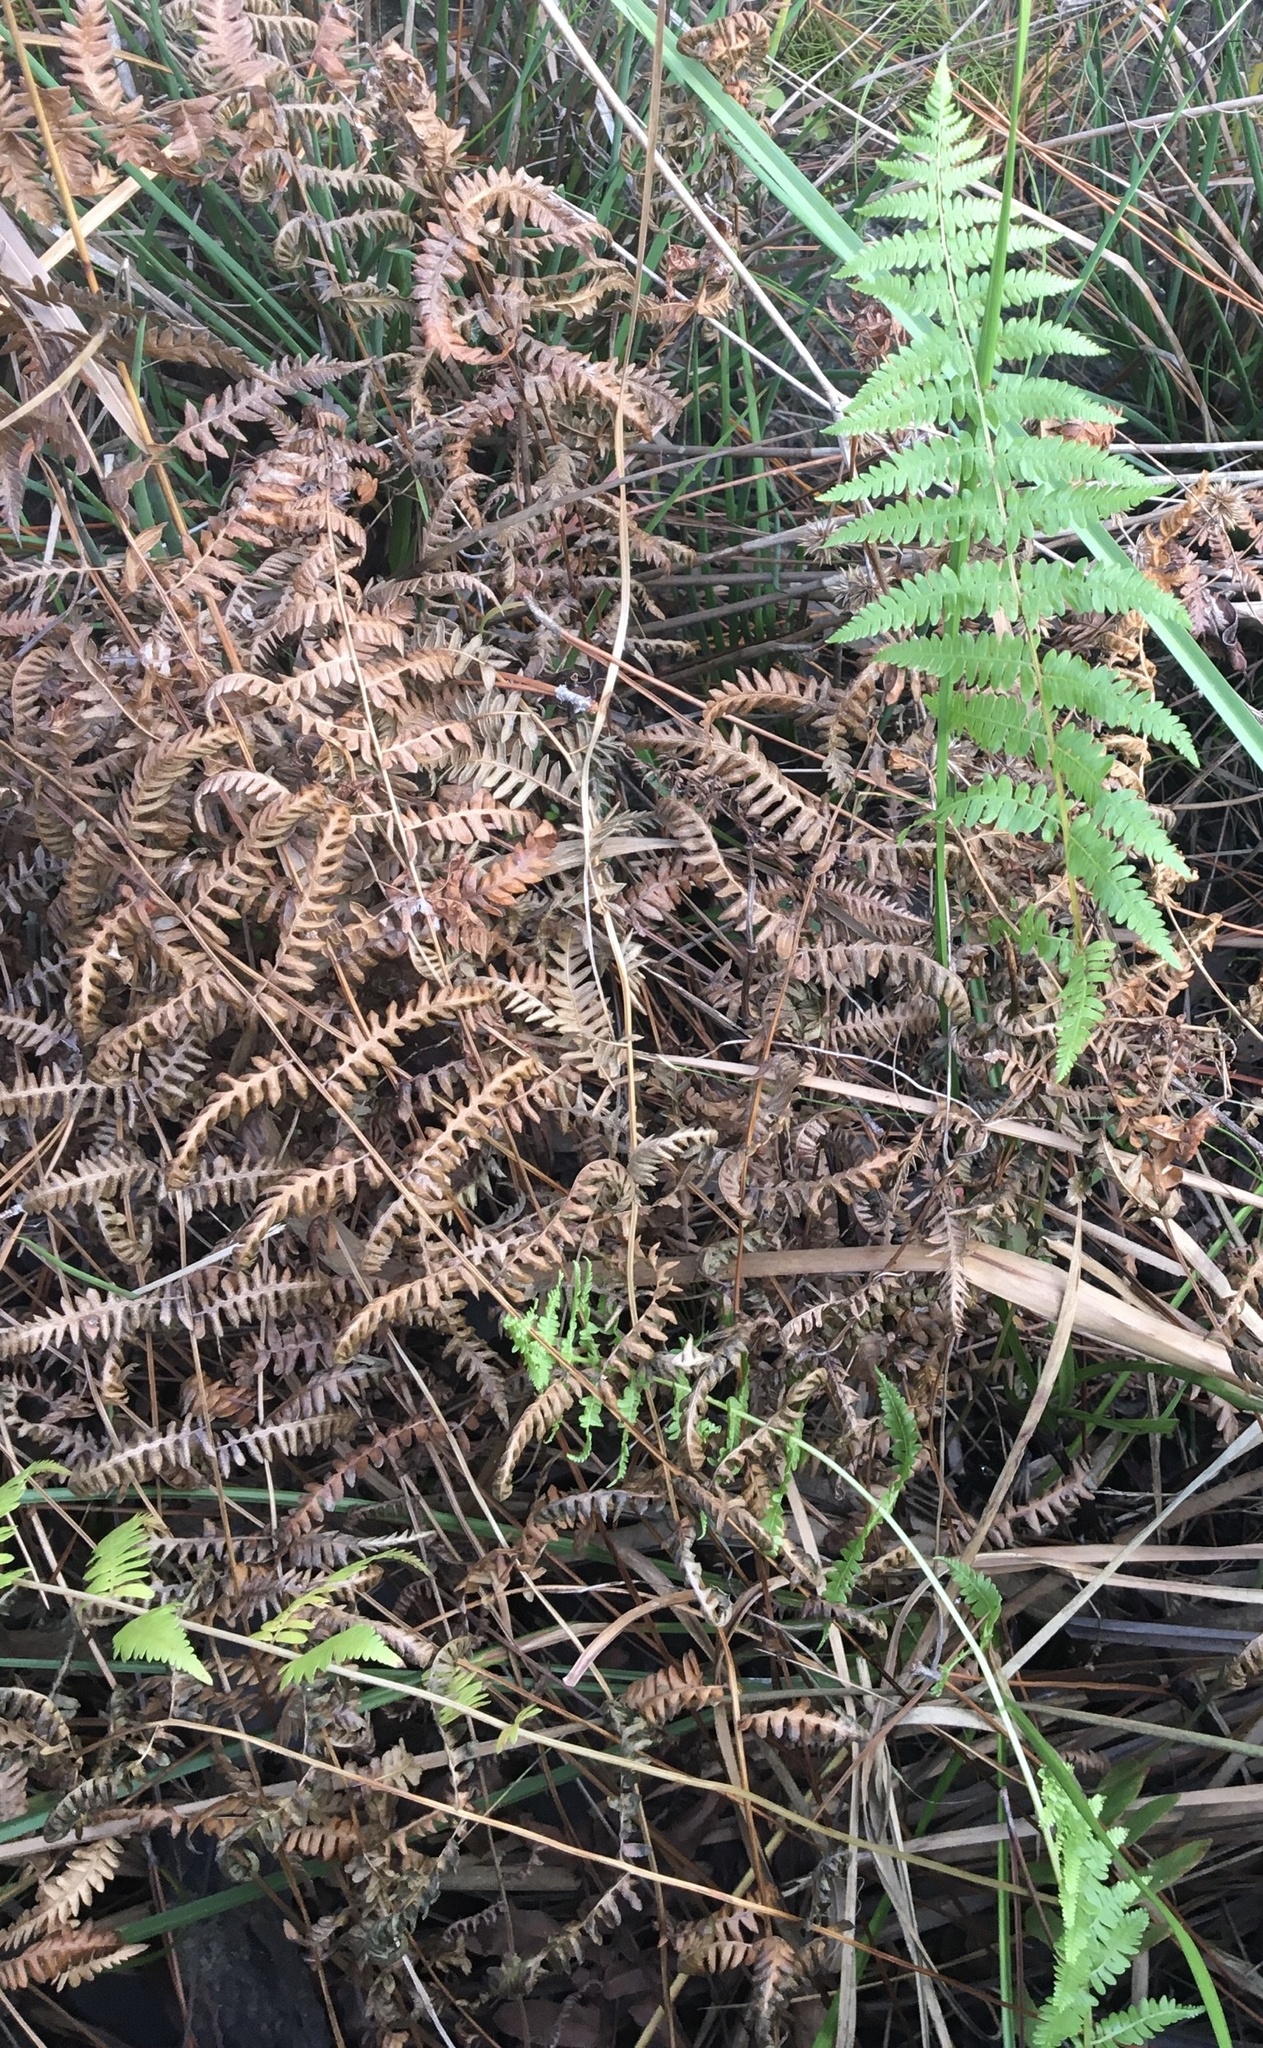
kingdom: Plantae
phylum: Tracheophyta
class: Polypodiopsida
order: Polypodiales
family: Thelypteridaceae
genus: Thelypteris
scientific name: Thelypteris palustris
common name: Marsh fern
